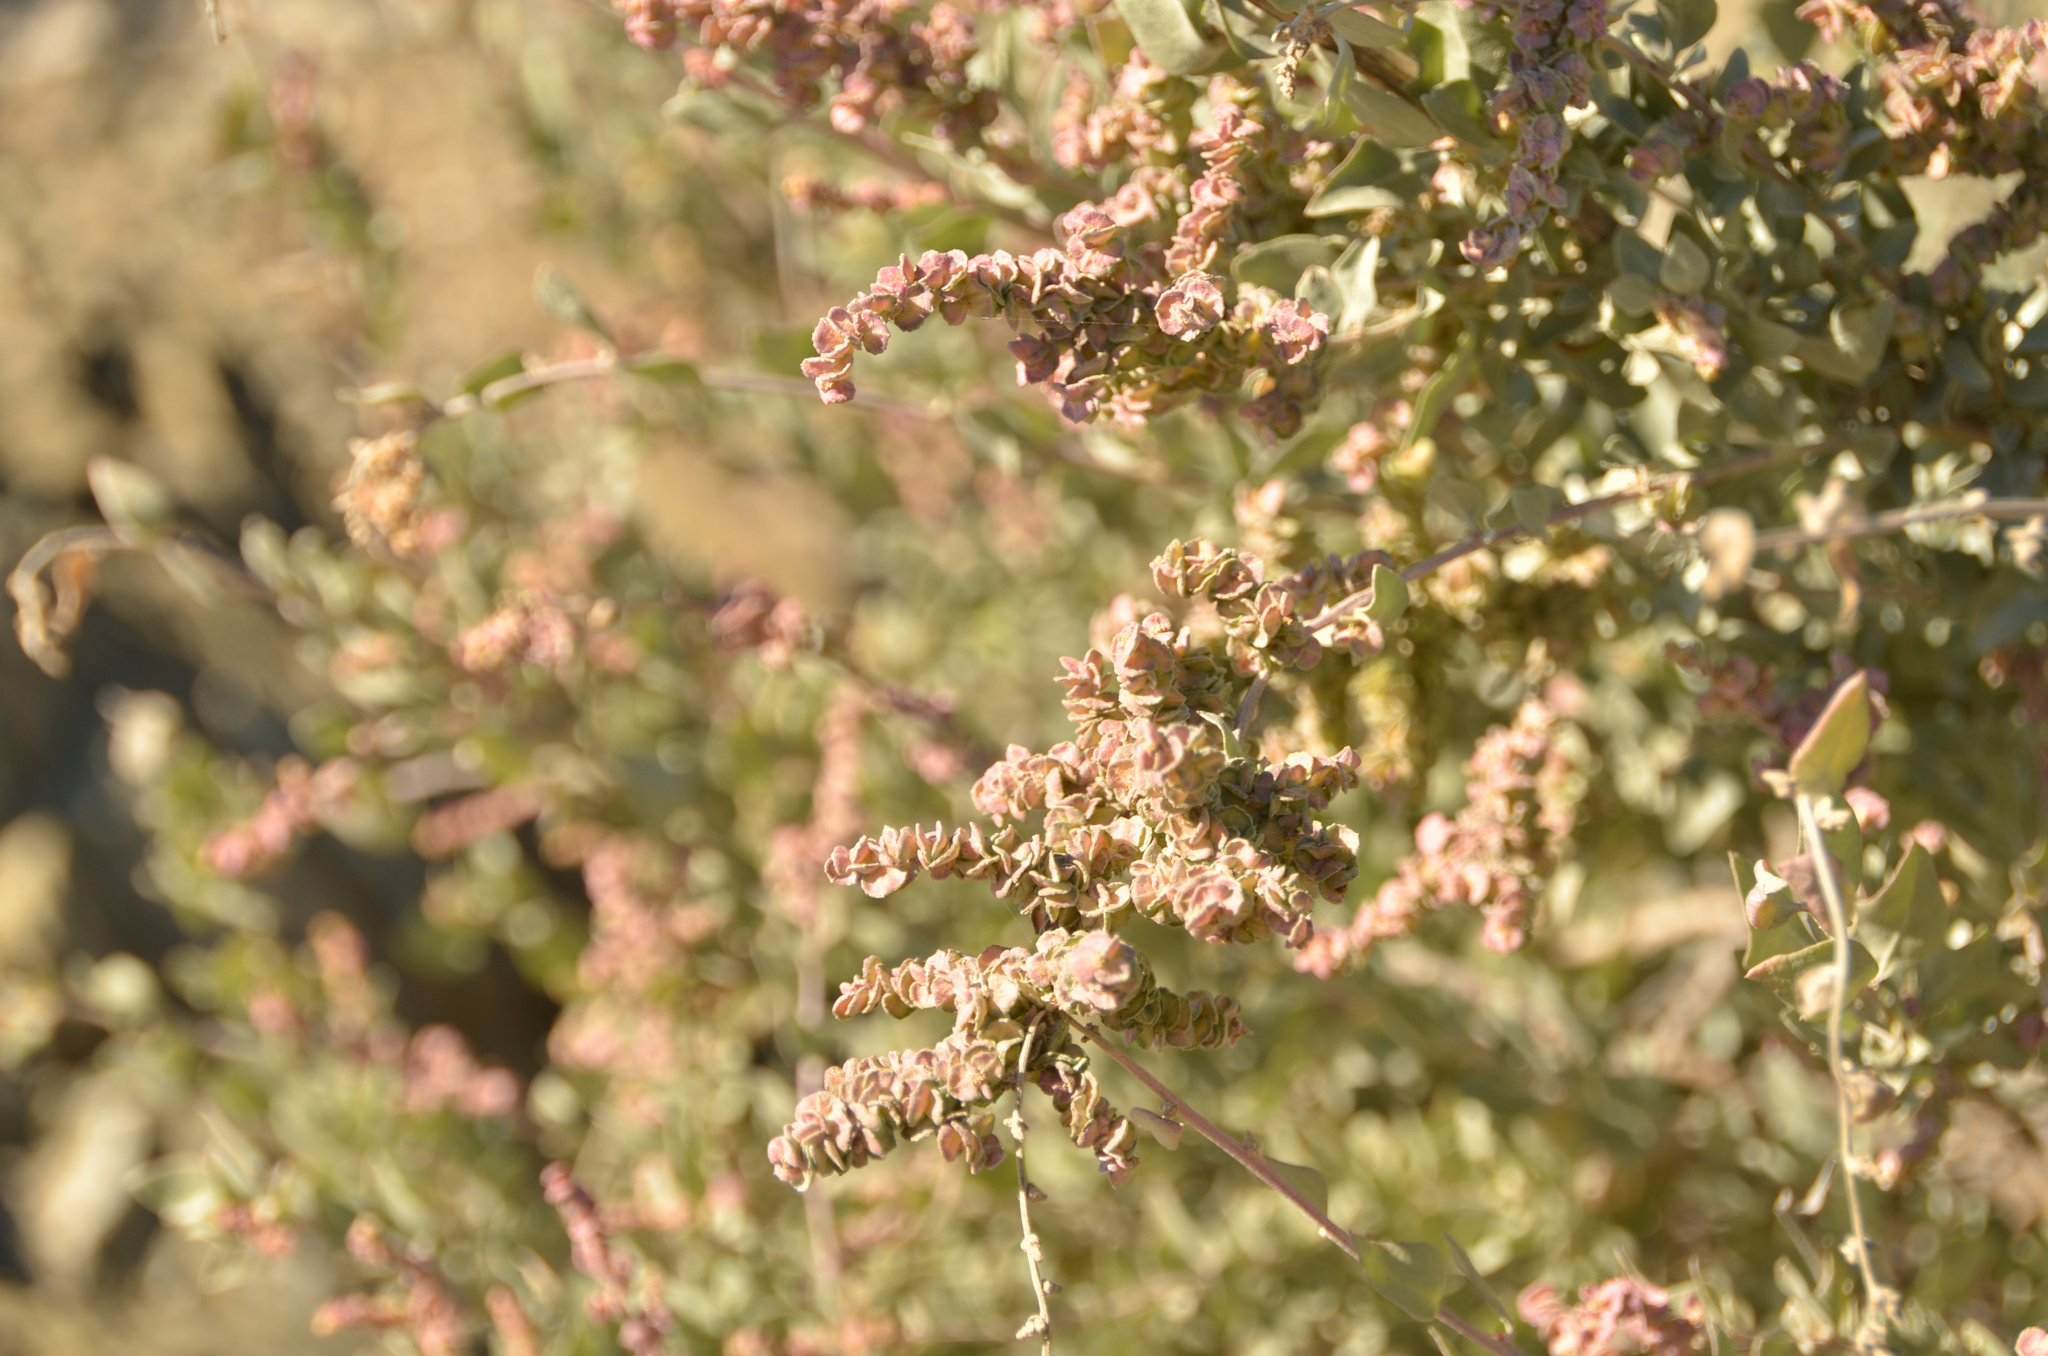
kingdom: Plantae
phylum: Tracheophyta
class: Magnoliopsida
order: Caryophyllales
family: Amaranthaceae
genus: Atriplex
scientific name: Atriplex halimus
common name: Shrubby orache
